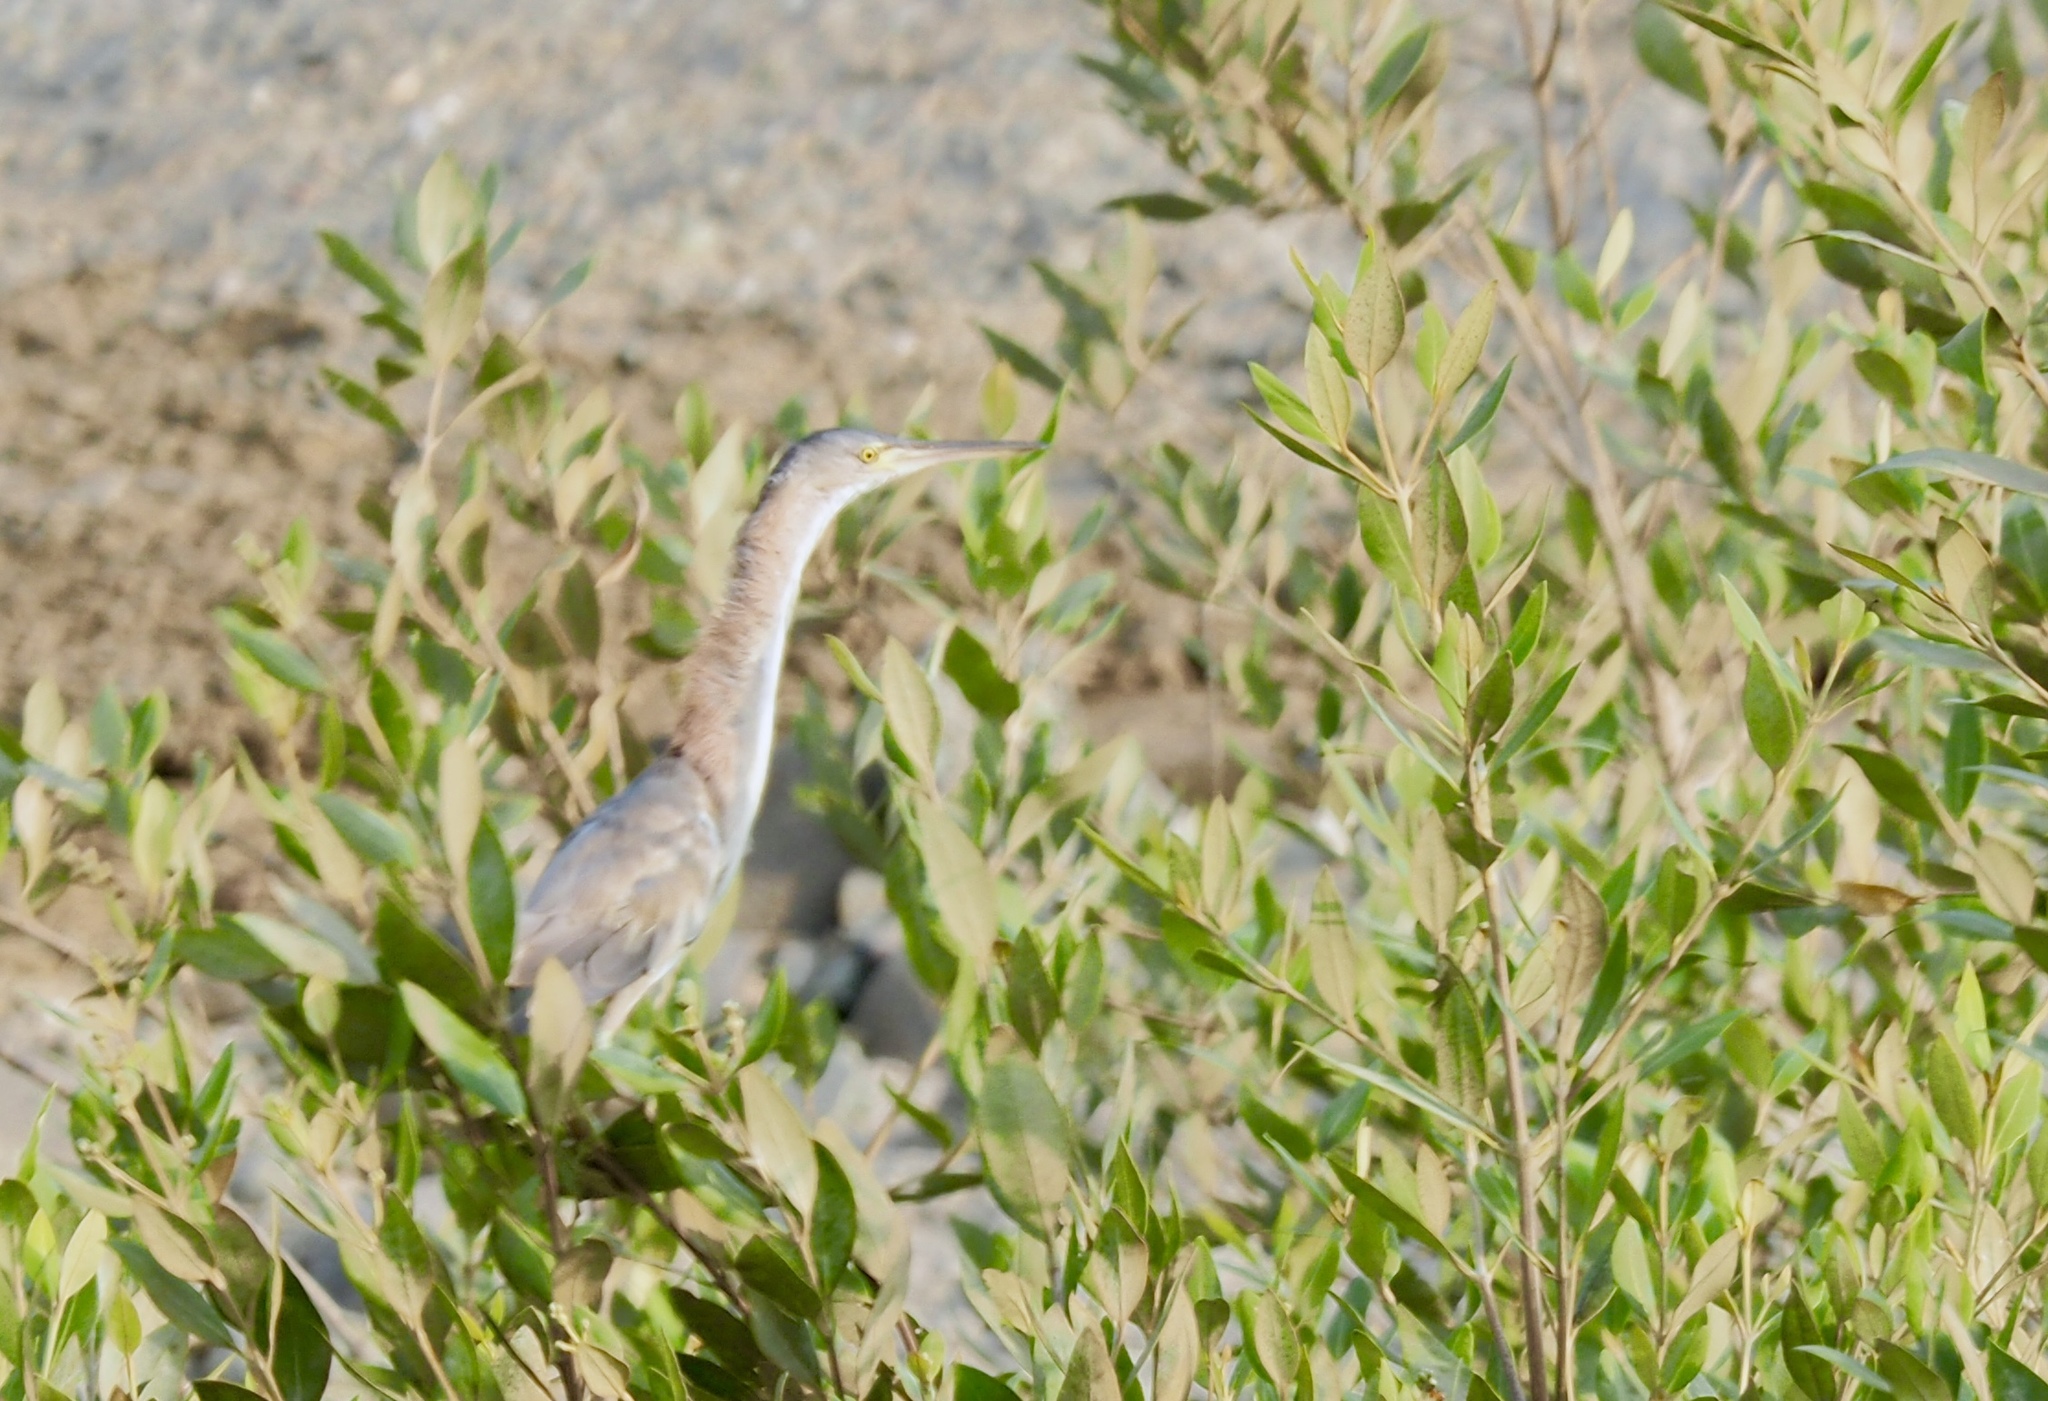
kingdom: Animalia
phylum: Chordata
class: Aves
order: Pelecaniformes
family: Ardeidae
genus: Ixobrychus
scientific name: Ixobrychus minutus
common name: Little bittern
